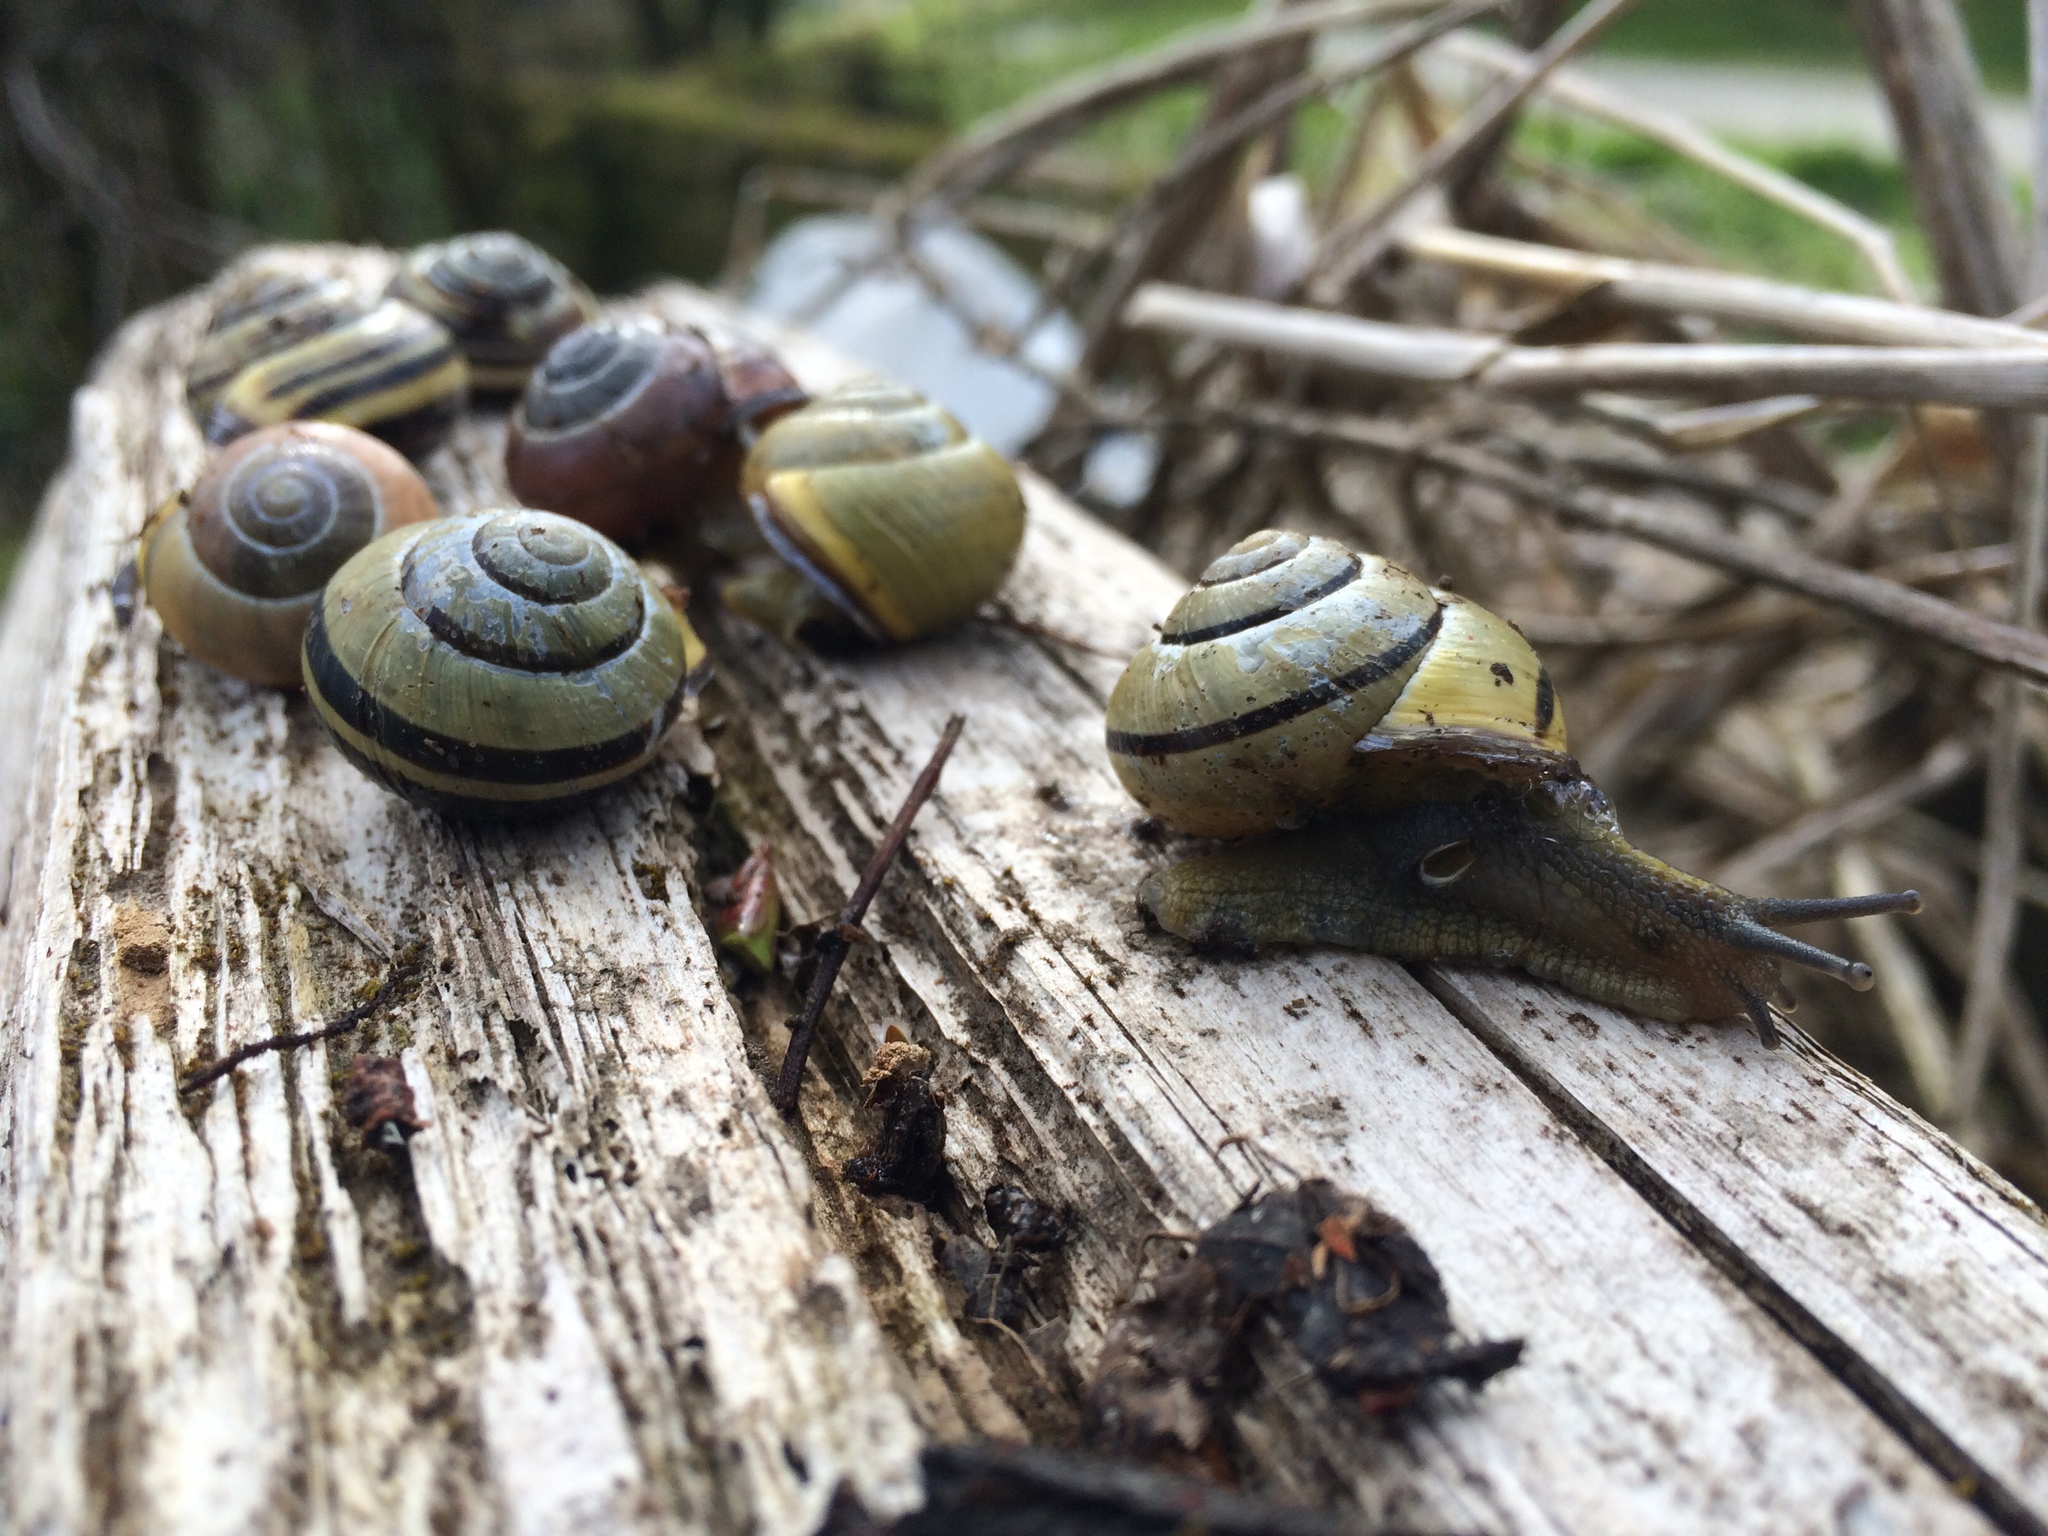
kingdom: Animalia
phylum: Mollusca
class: Gastropoda
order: Stylommatophora
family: Helicidae
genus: Cepaea
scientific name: Cepaea nemoralis
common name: Grovesnail
